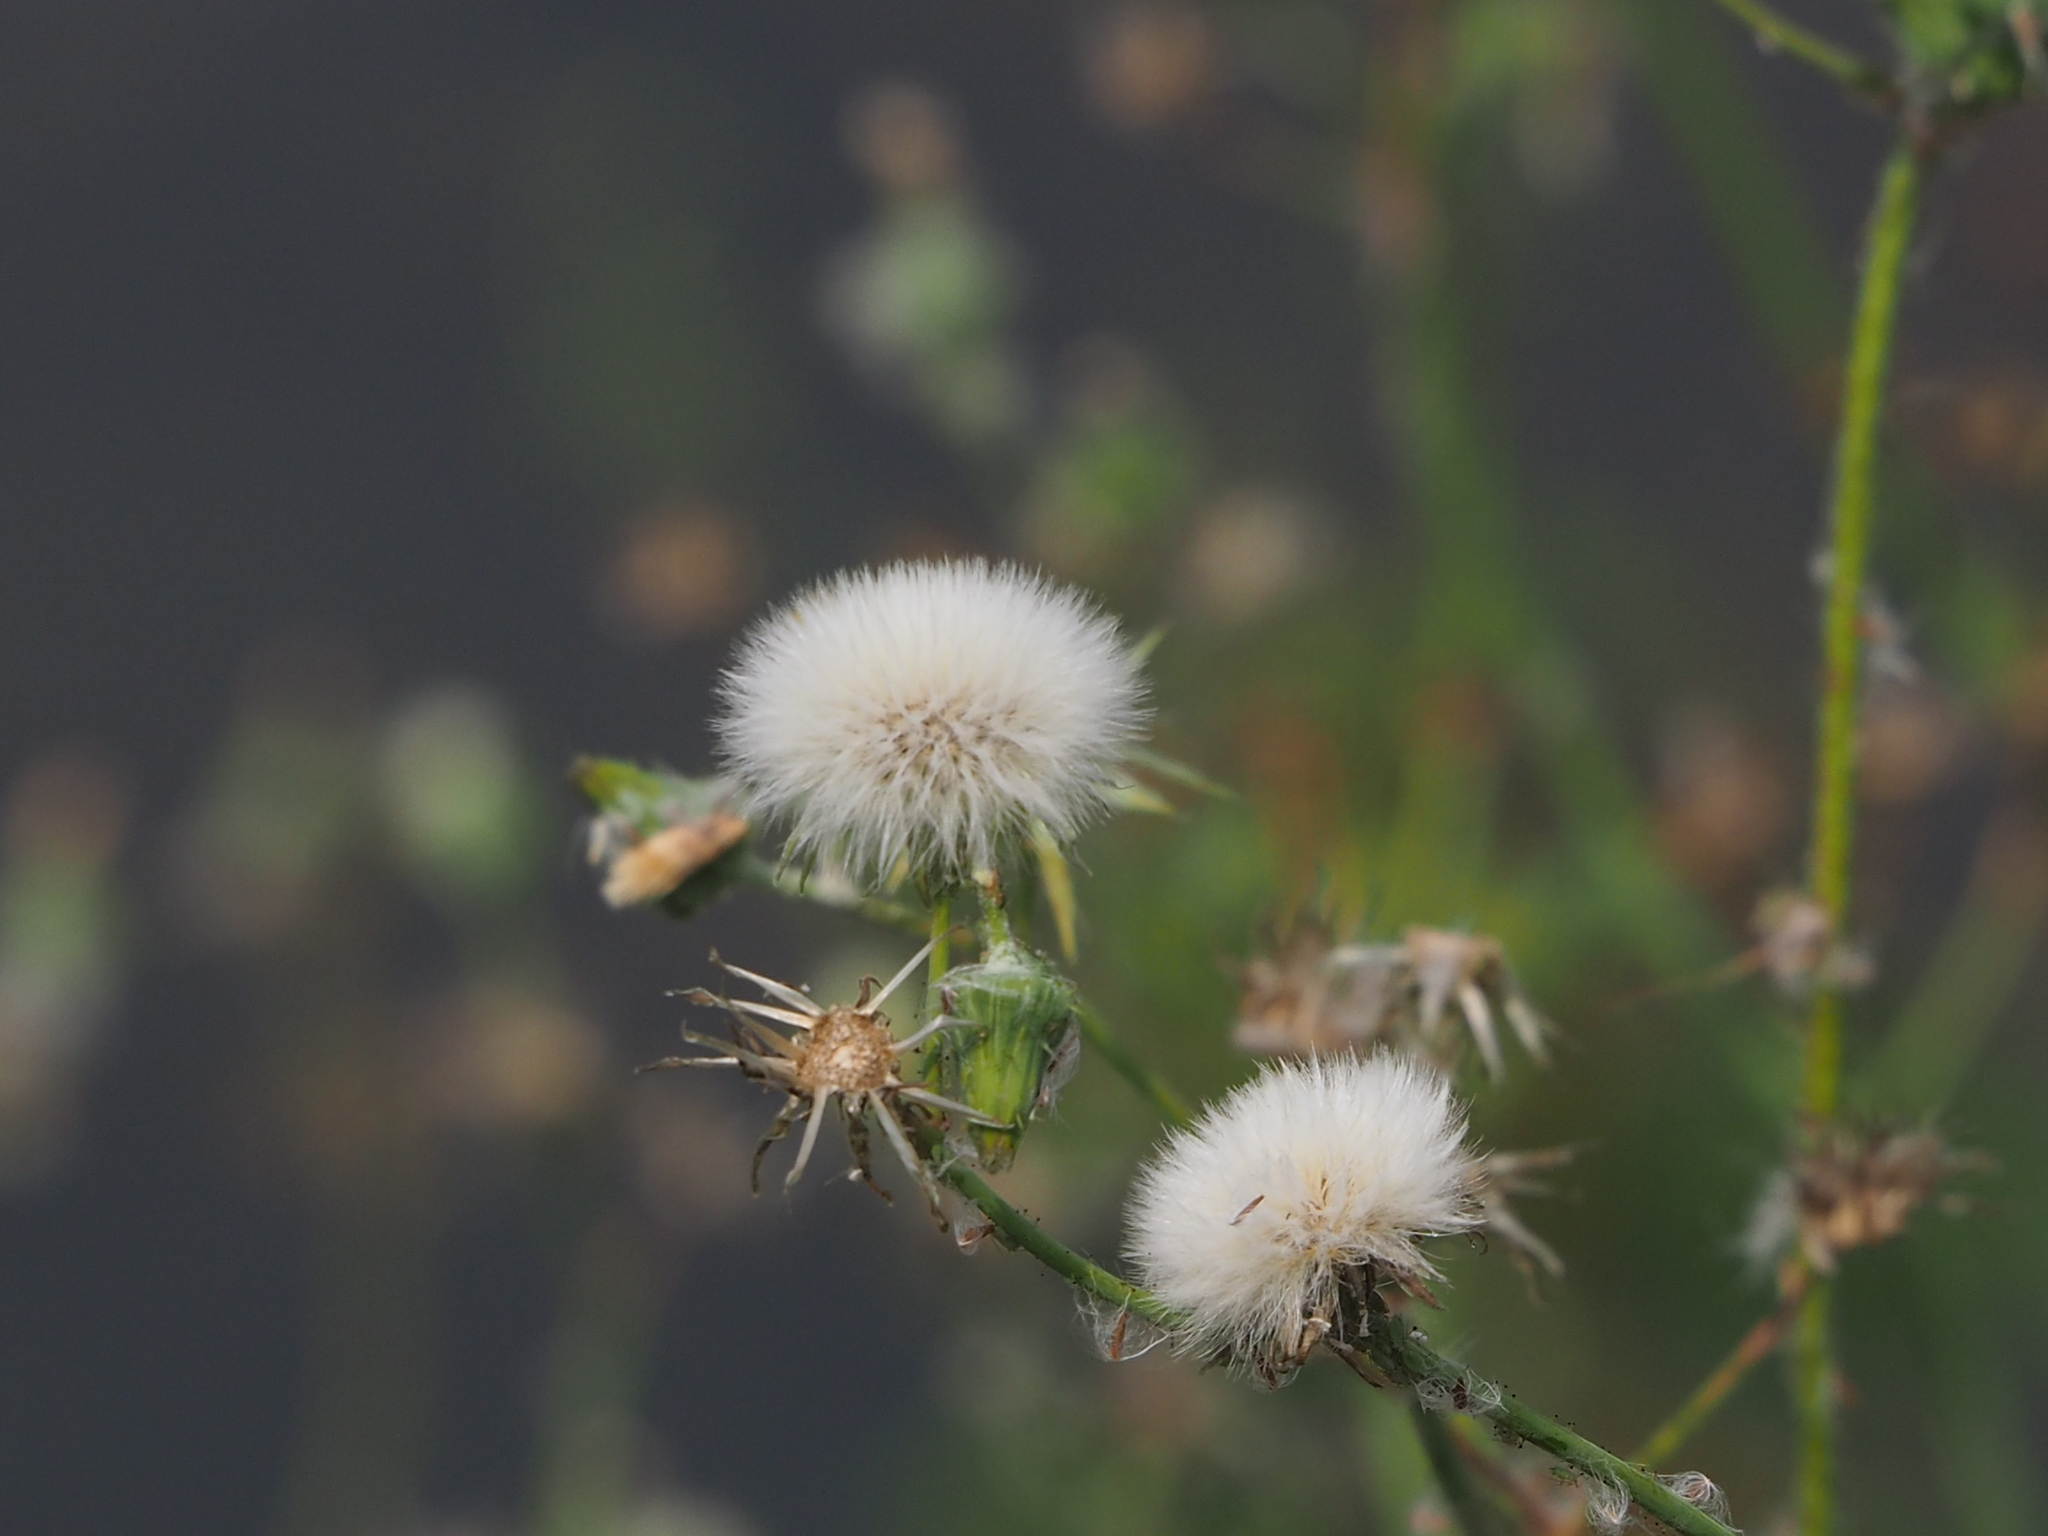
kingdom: Plantae
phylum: Tracheophyta
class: Magnoliopsida
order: Asterales
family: Asteraceae
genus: Sonchus
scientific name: Sonchus oleraceus
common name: Common sowthistle
